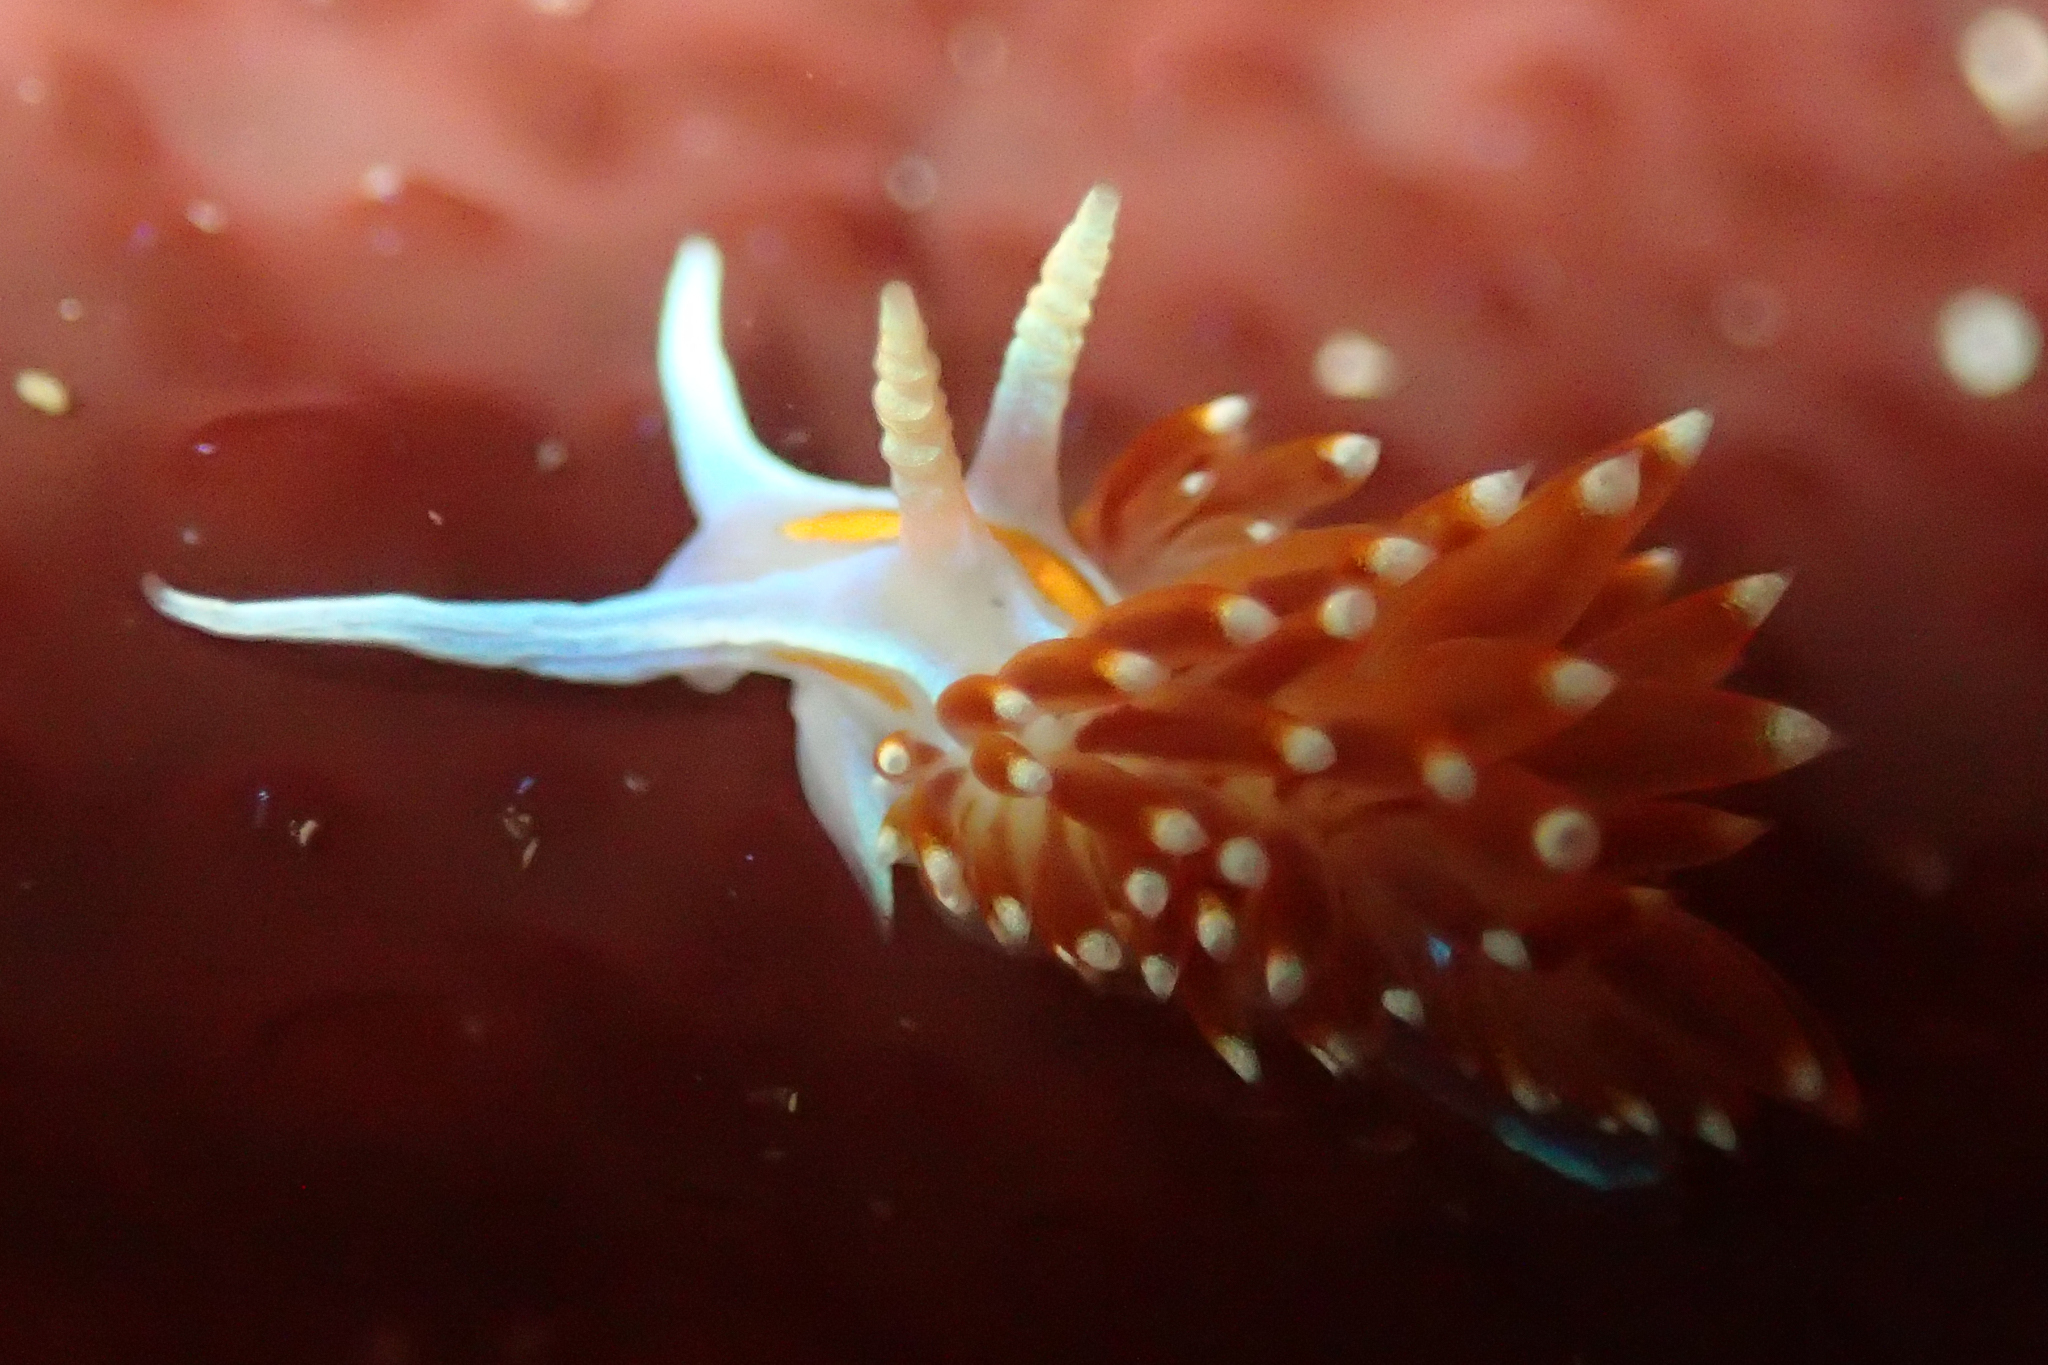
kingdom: Animalia
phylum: Mollusca
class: Gastropoda
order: Nudibranchia
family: Myrrhinidae
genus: Hermissenda
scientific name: Hermissenda opalescens
